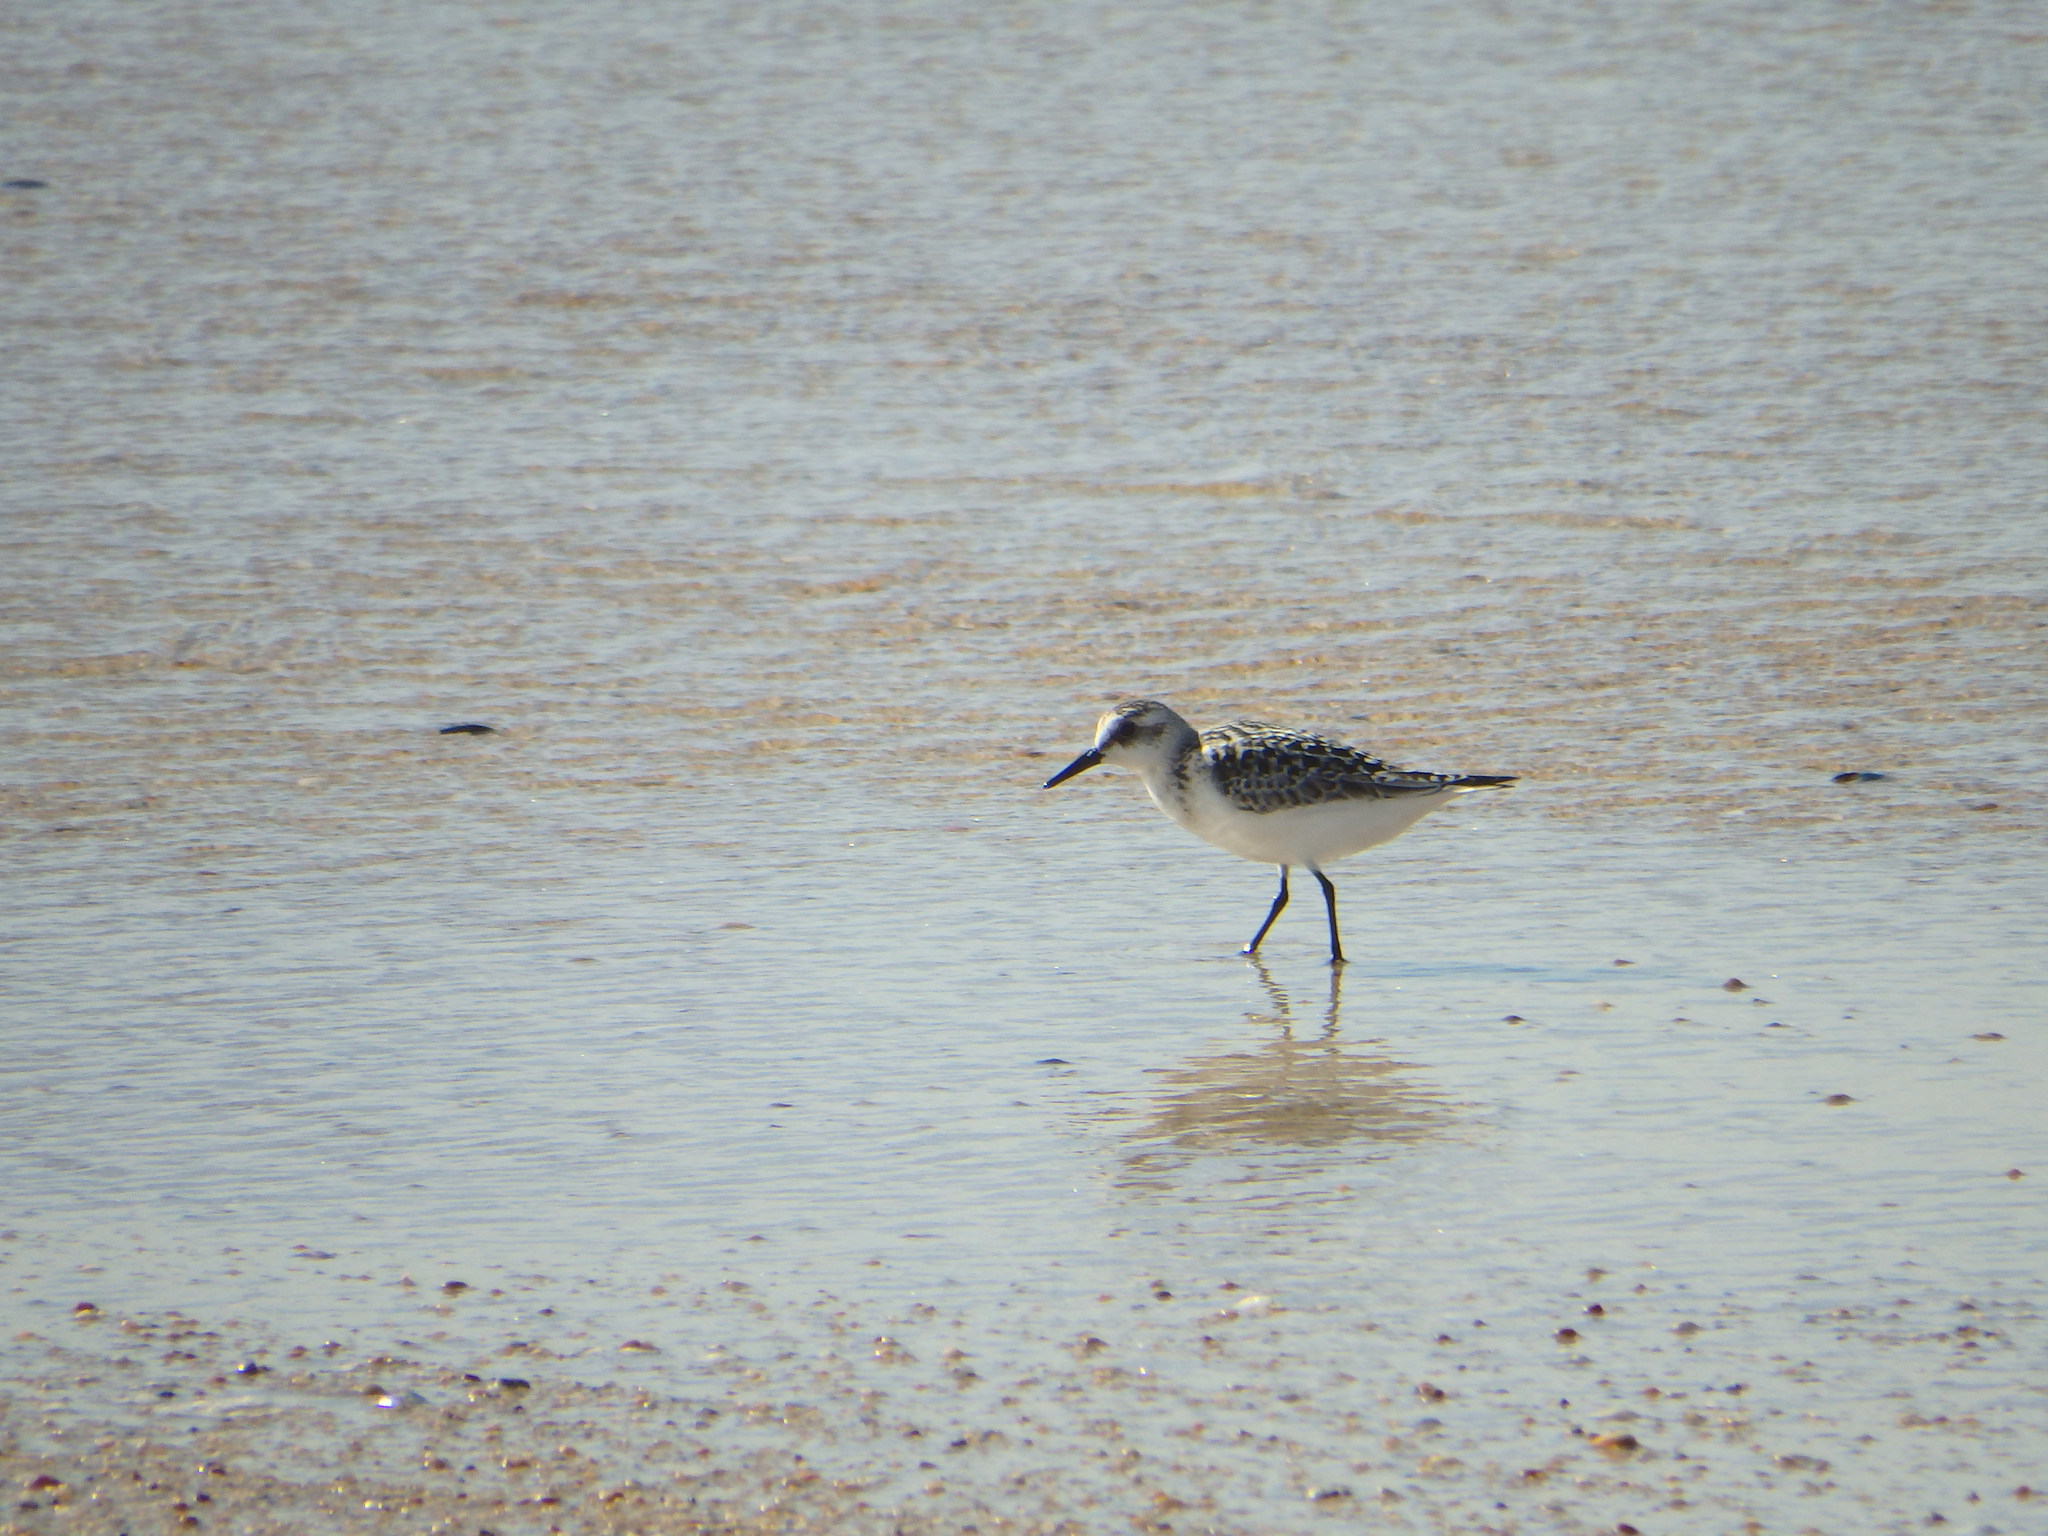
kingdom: Animalia
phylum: Chordata
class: Aves
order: Charadriiformes
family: Scolopacidae
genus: Calidris
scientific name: Calidris alba
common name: Sanderling
